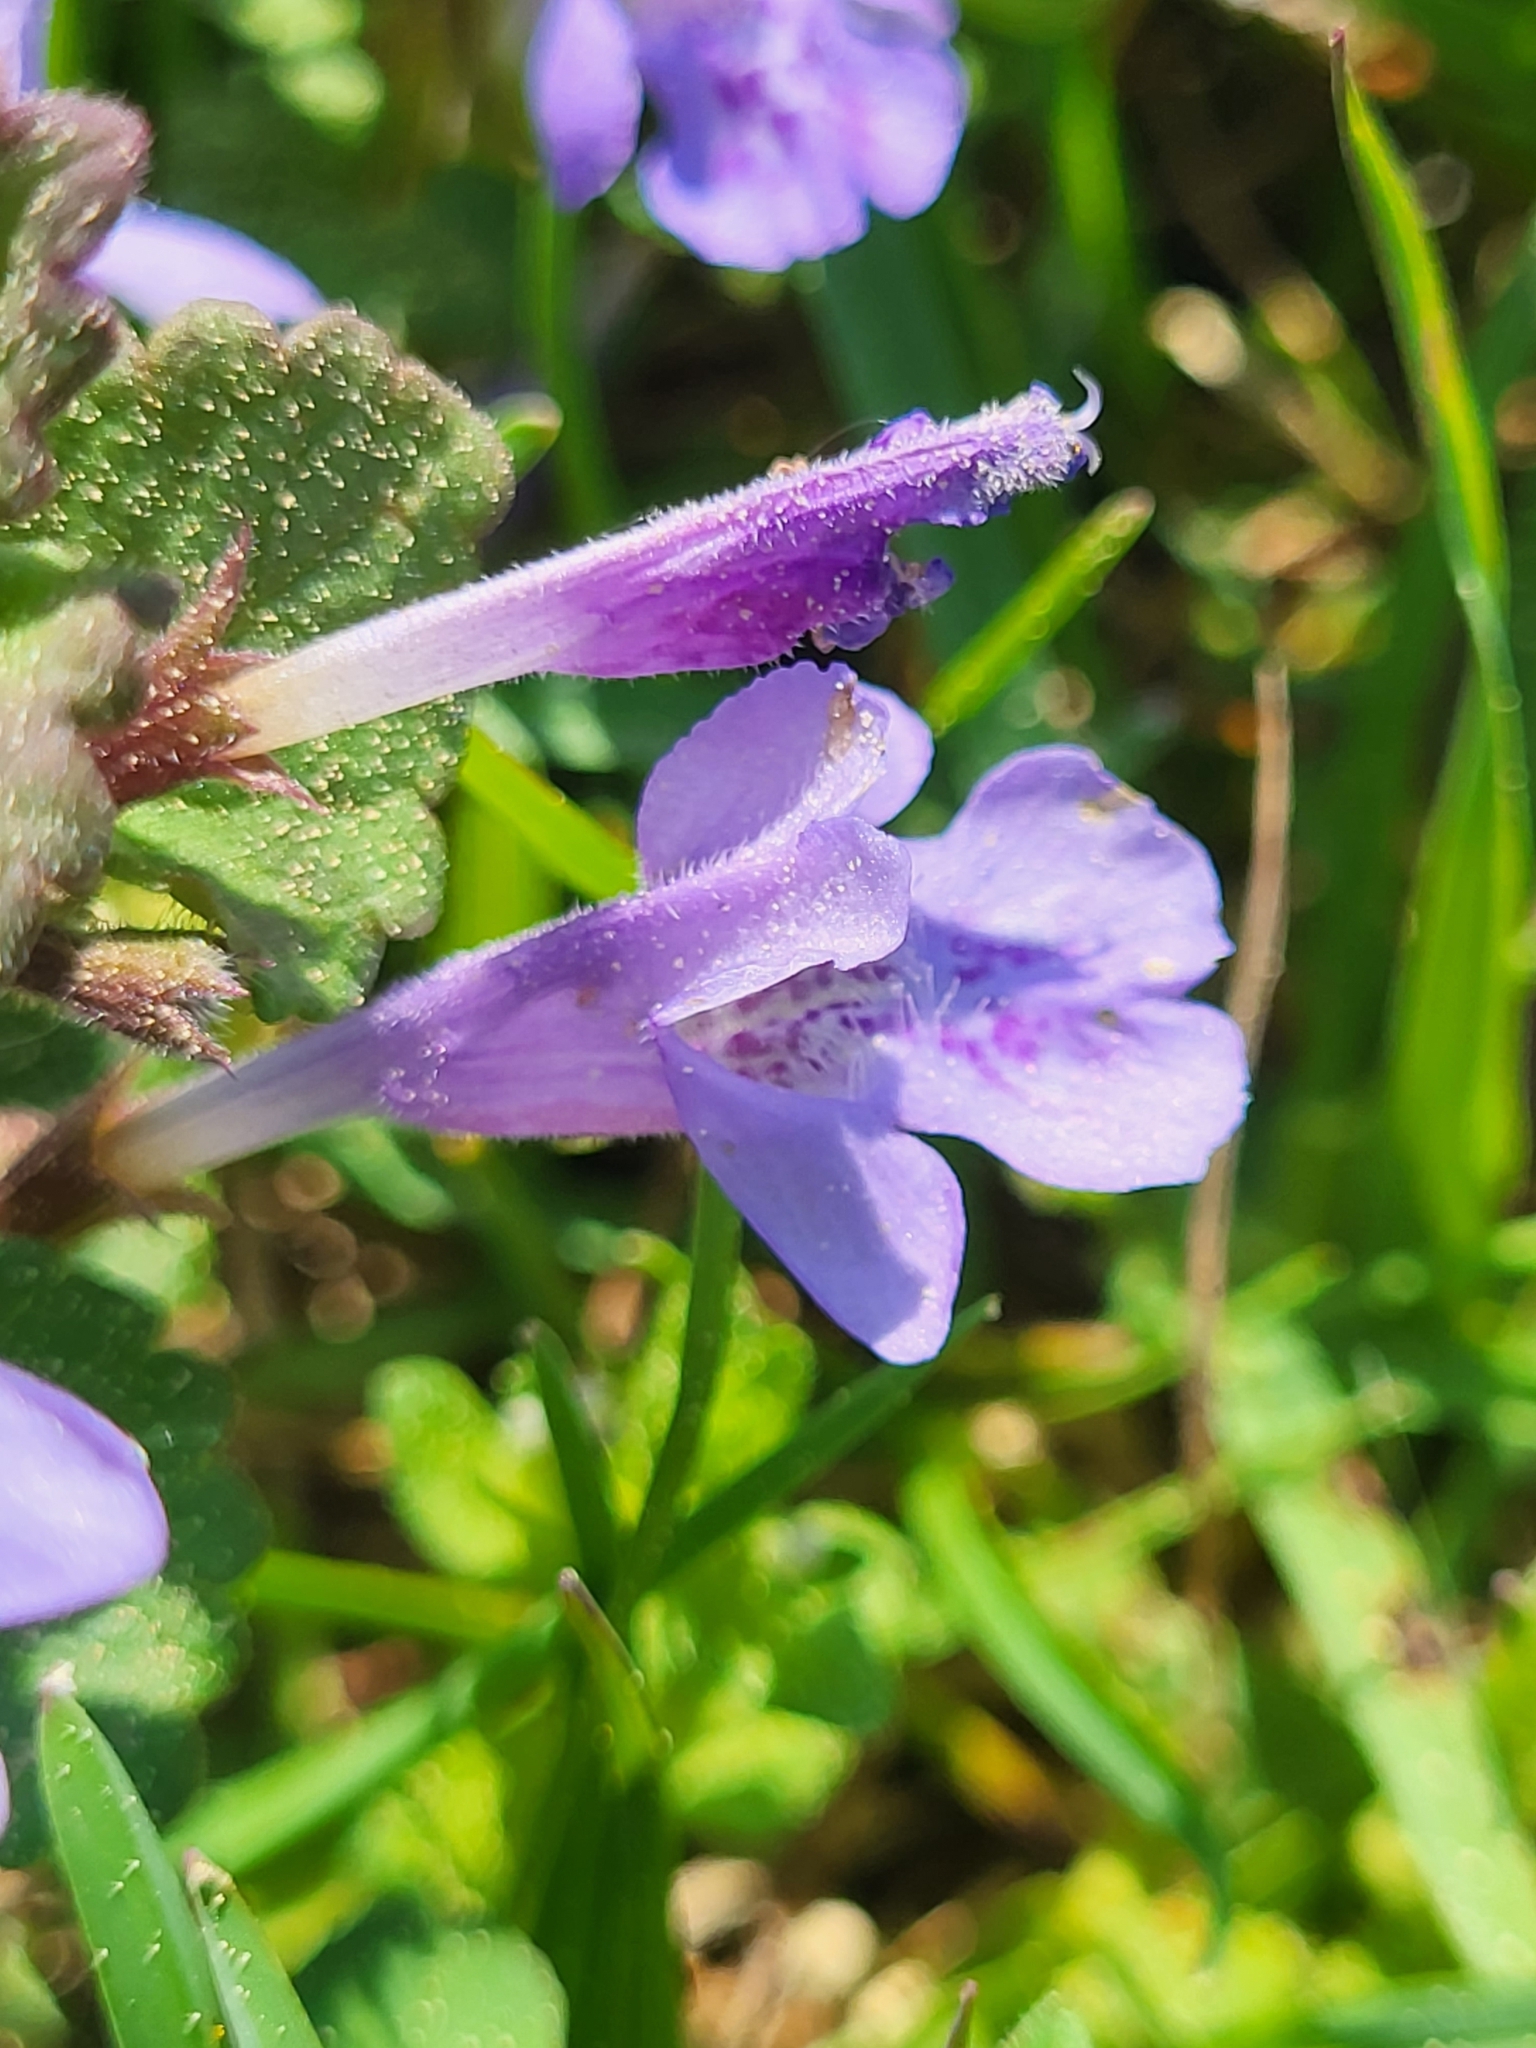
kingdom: Plantae
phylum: Tracheophyta
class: Magnoliopsida
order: Lamiales
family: Lamiaceae
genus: Glechoma
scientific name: Glechoma hederacea
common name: Ground ivy
